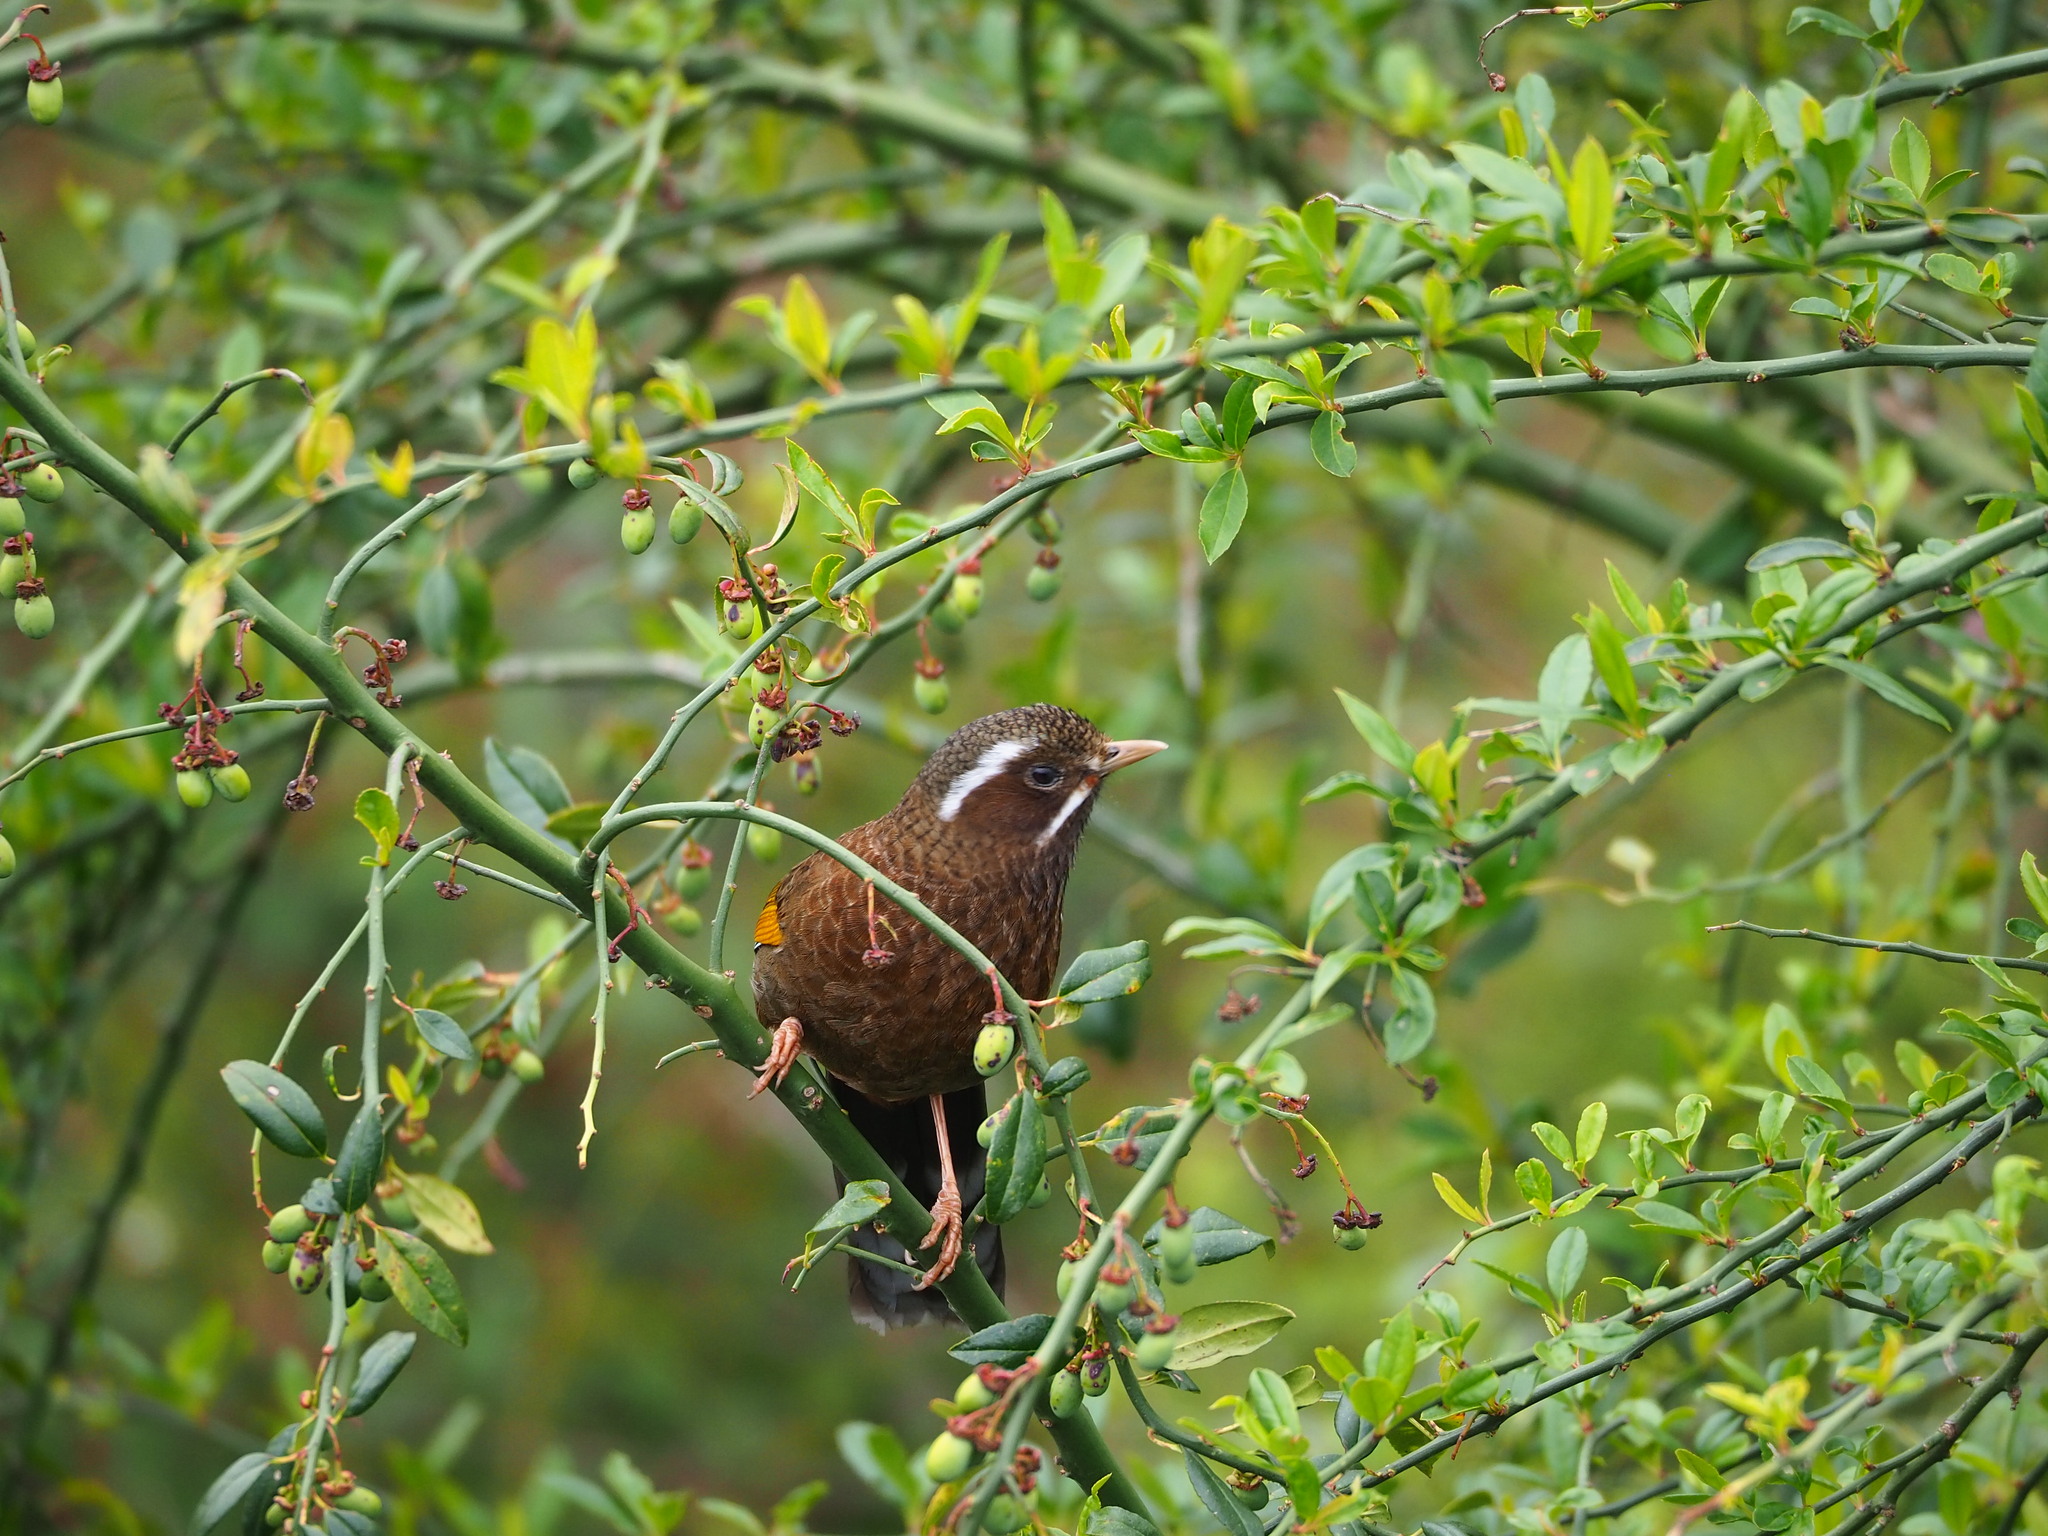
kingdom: Animalia
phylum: Chordata
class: Aves
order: Passeriformes
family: Leiothrichidae
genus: Trochalopteron
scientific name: Trochalopteron morrisonianum
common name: White-whiskered laughingthrush
